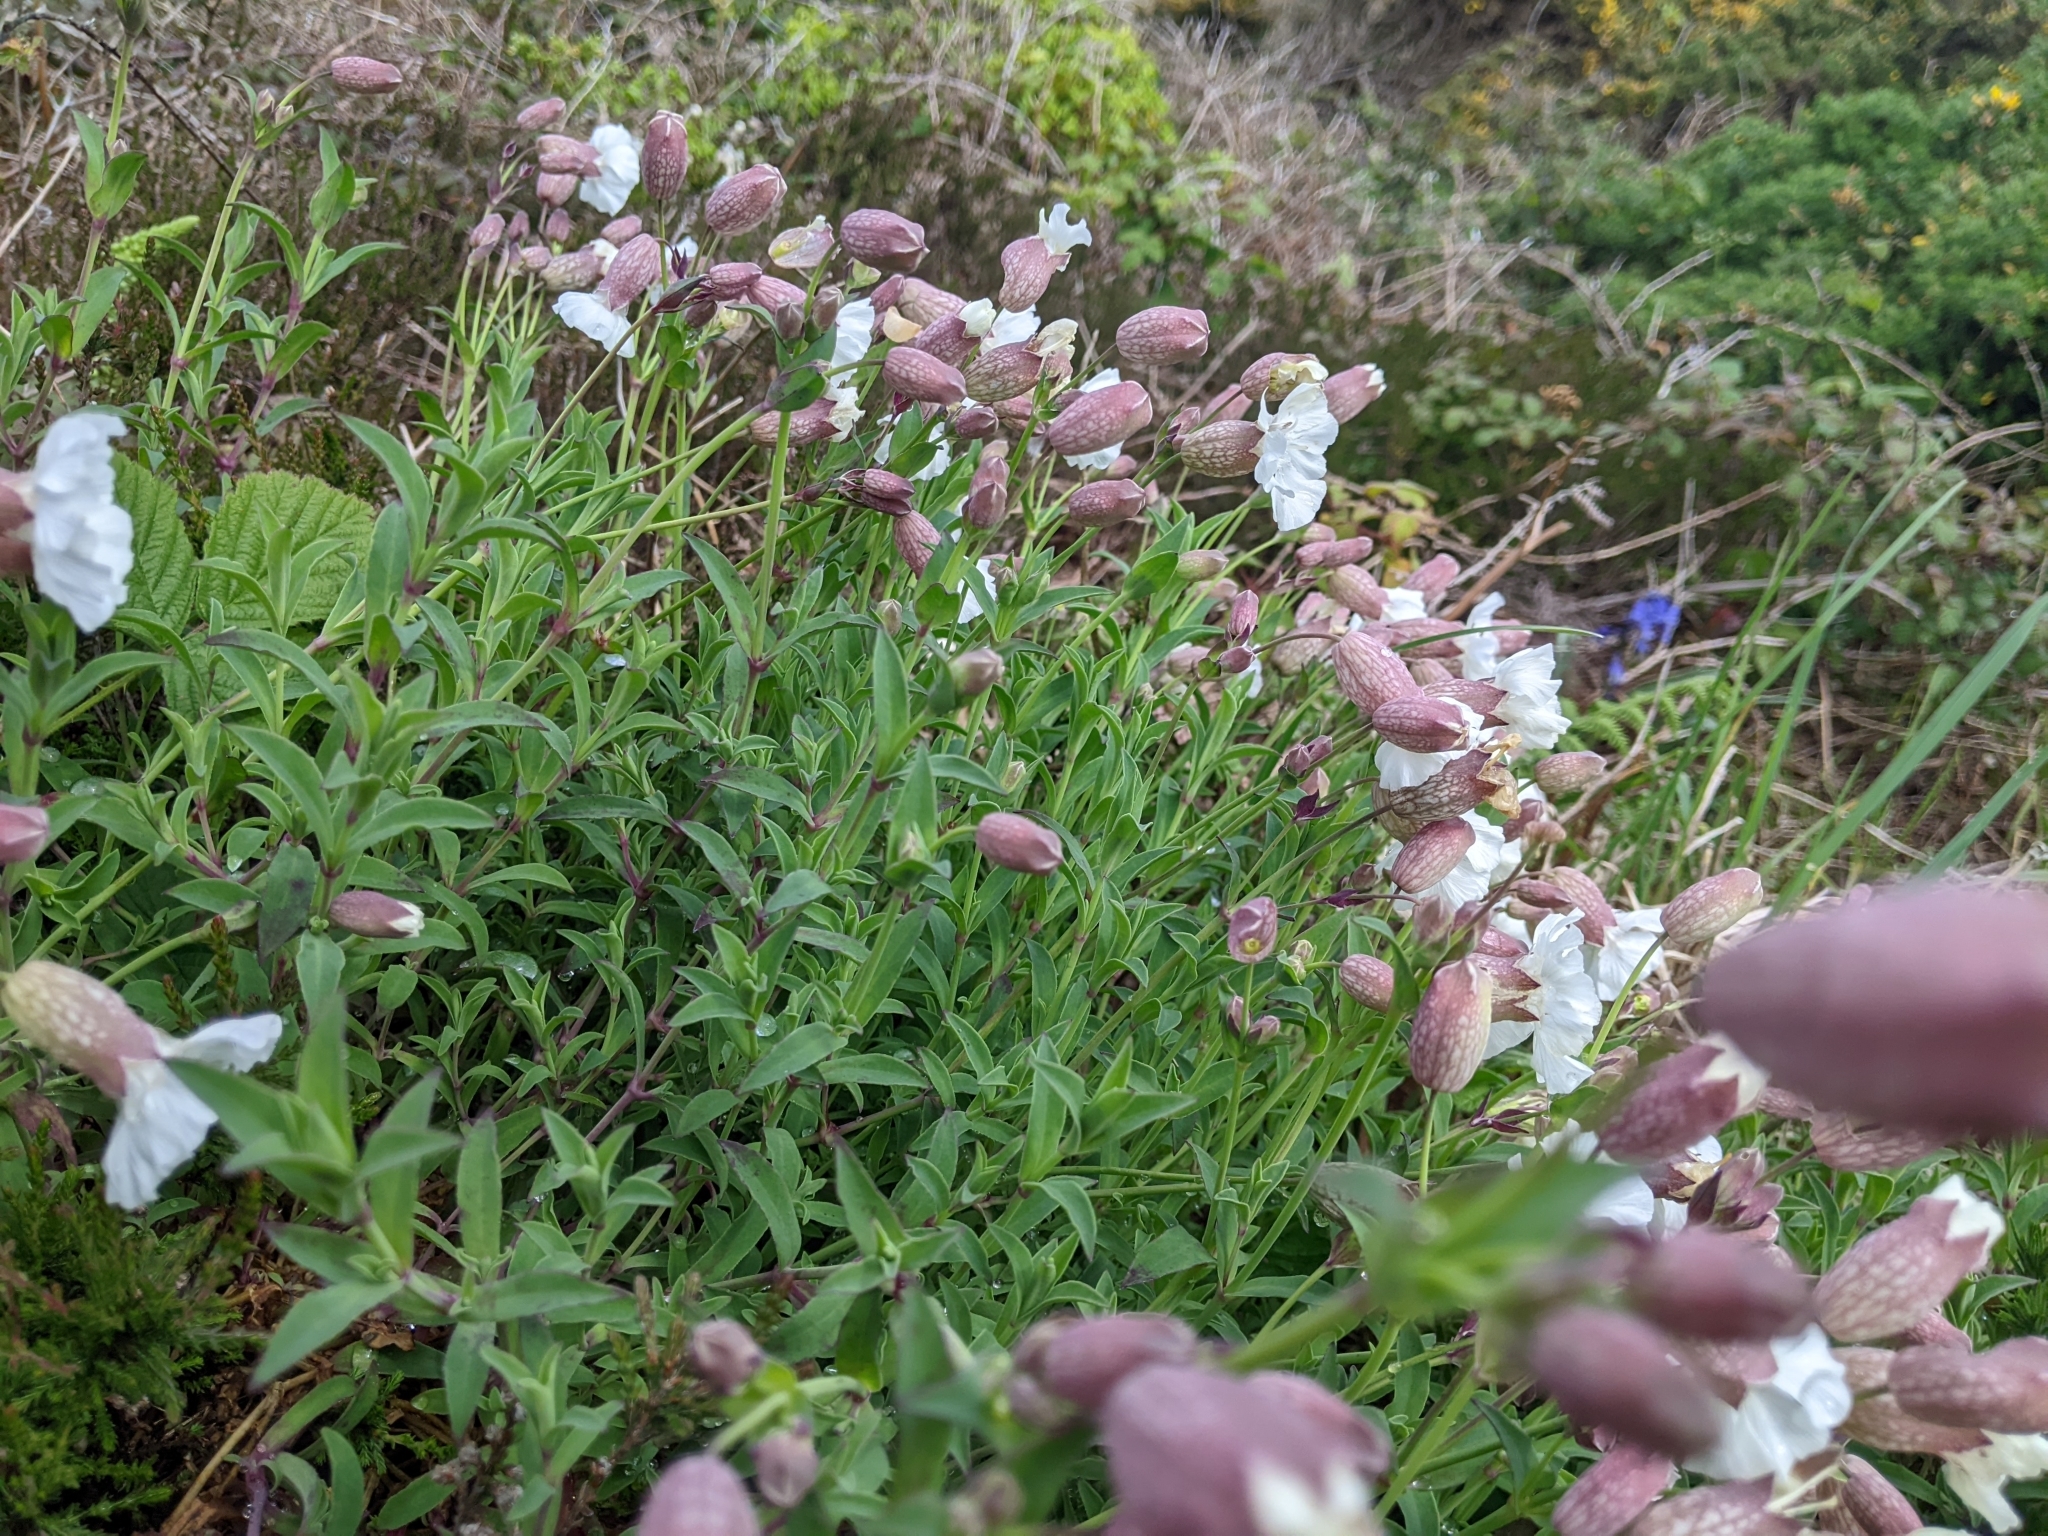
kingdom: Plantae
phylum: Tracheophyta
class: Magnoliopsida
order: Caryophyllales
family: Caryophyllaceae
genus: Silene
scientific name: Silene uniflora
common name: Sea campion
